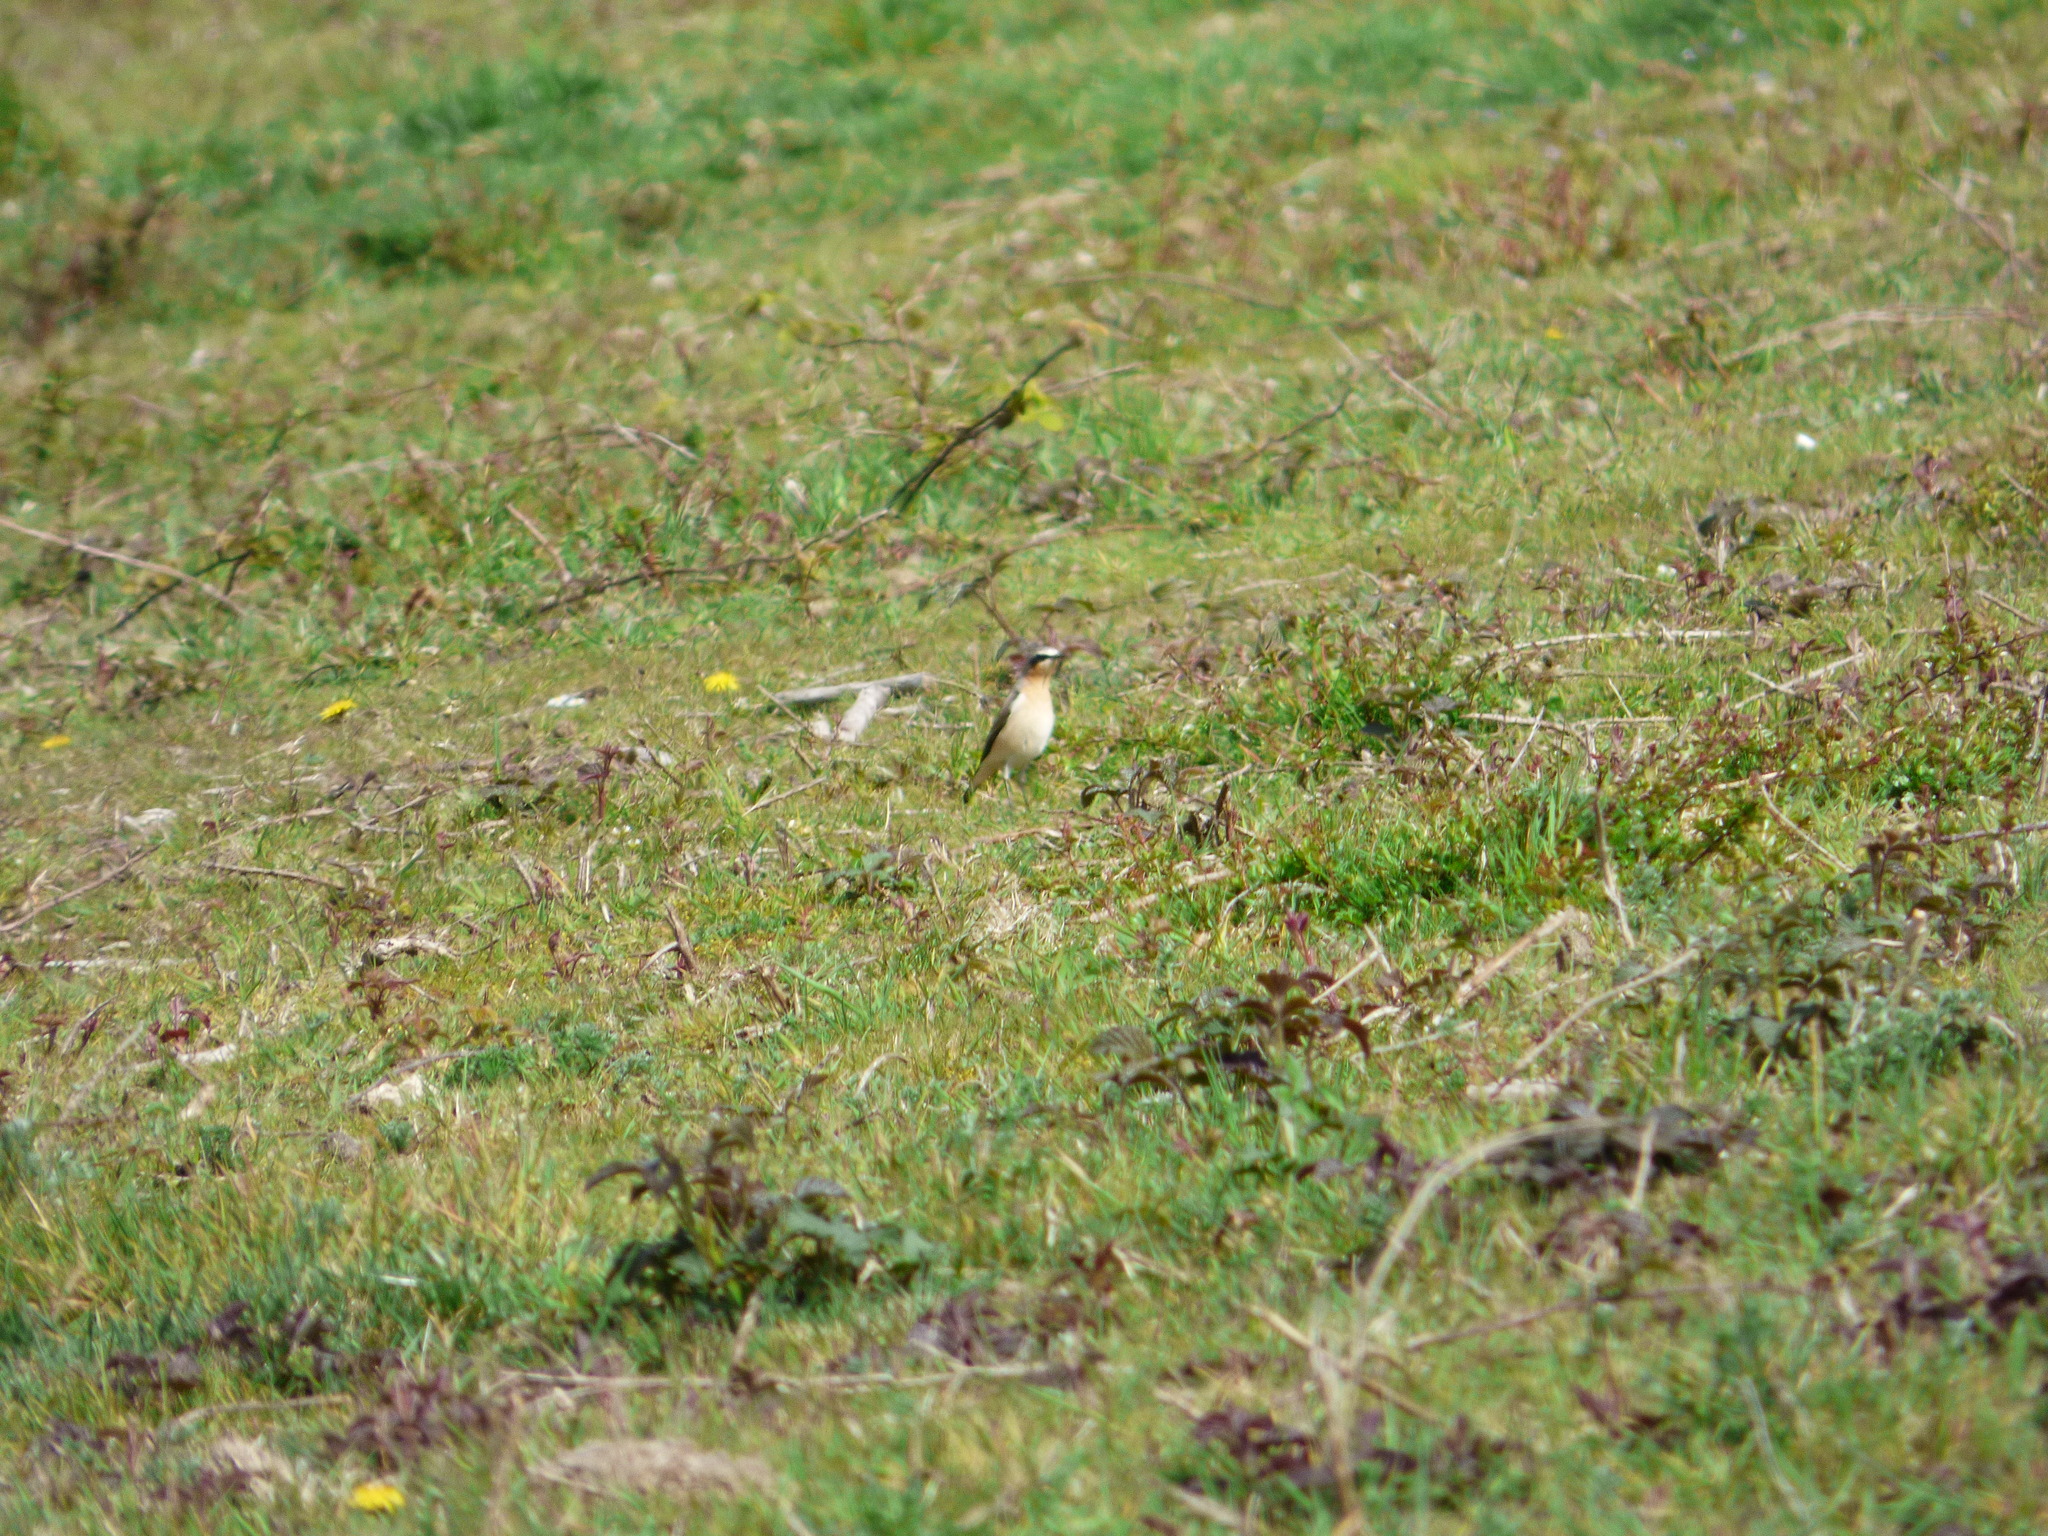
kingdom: Animalia
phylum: Chordata
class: Aves
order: Passeriformes
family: Muscicapidae
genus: Oenanthe
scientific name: Oenanthe oenanthe
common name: Northern wheatear
